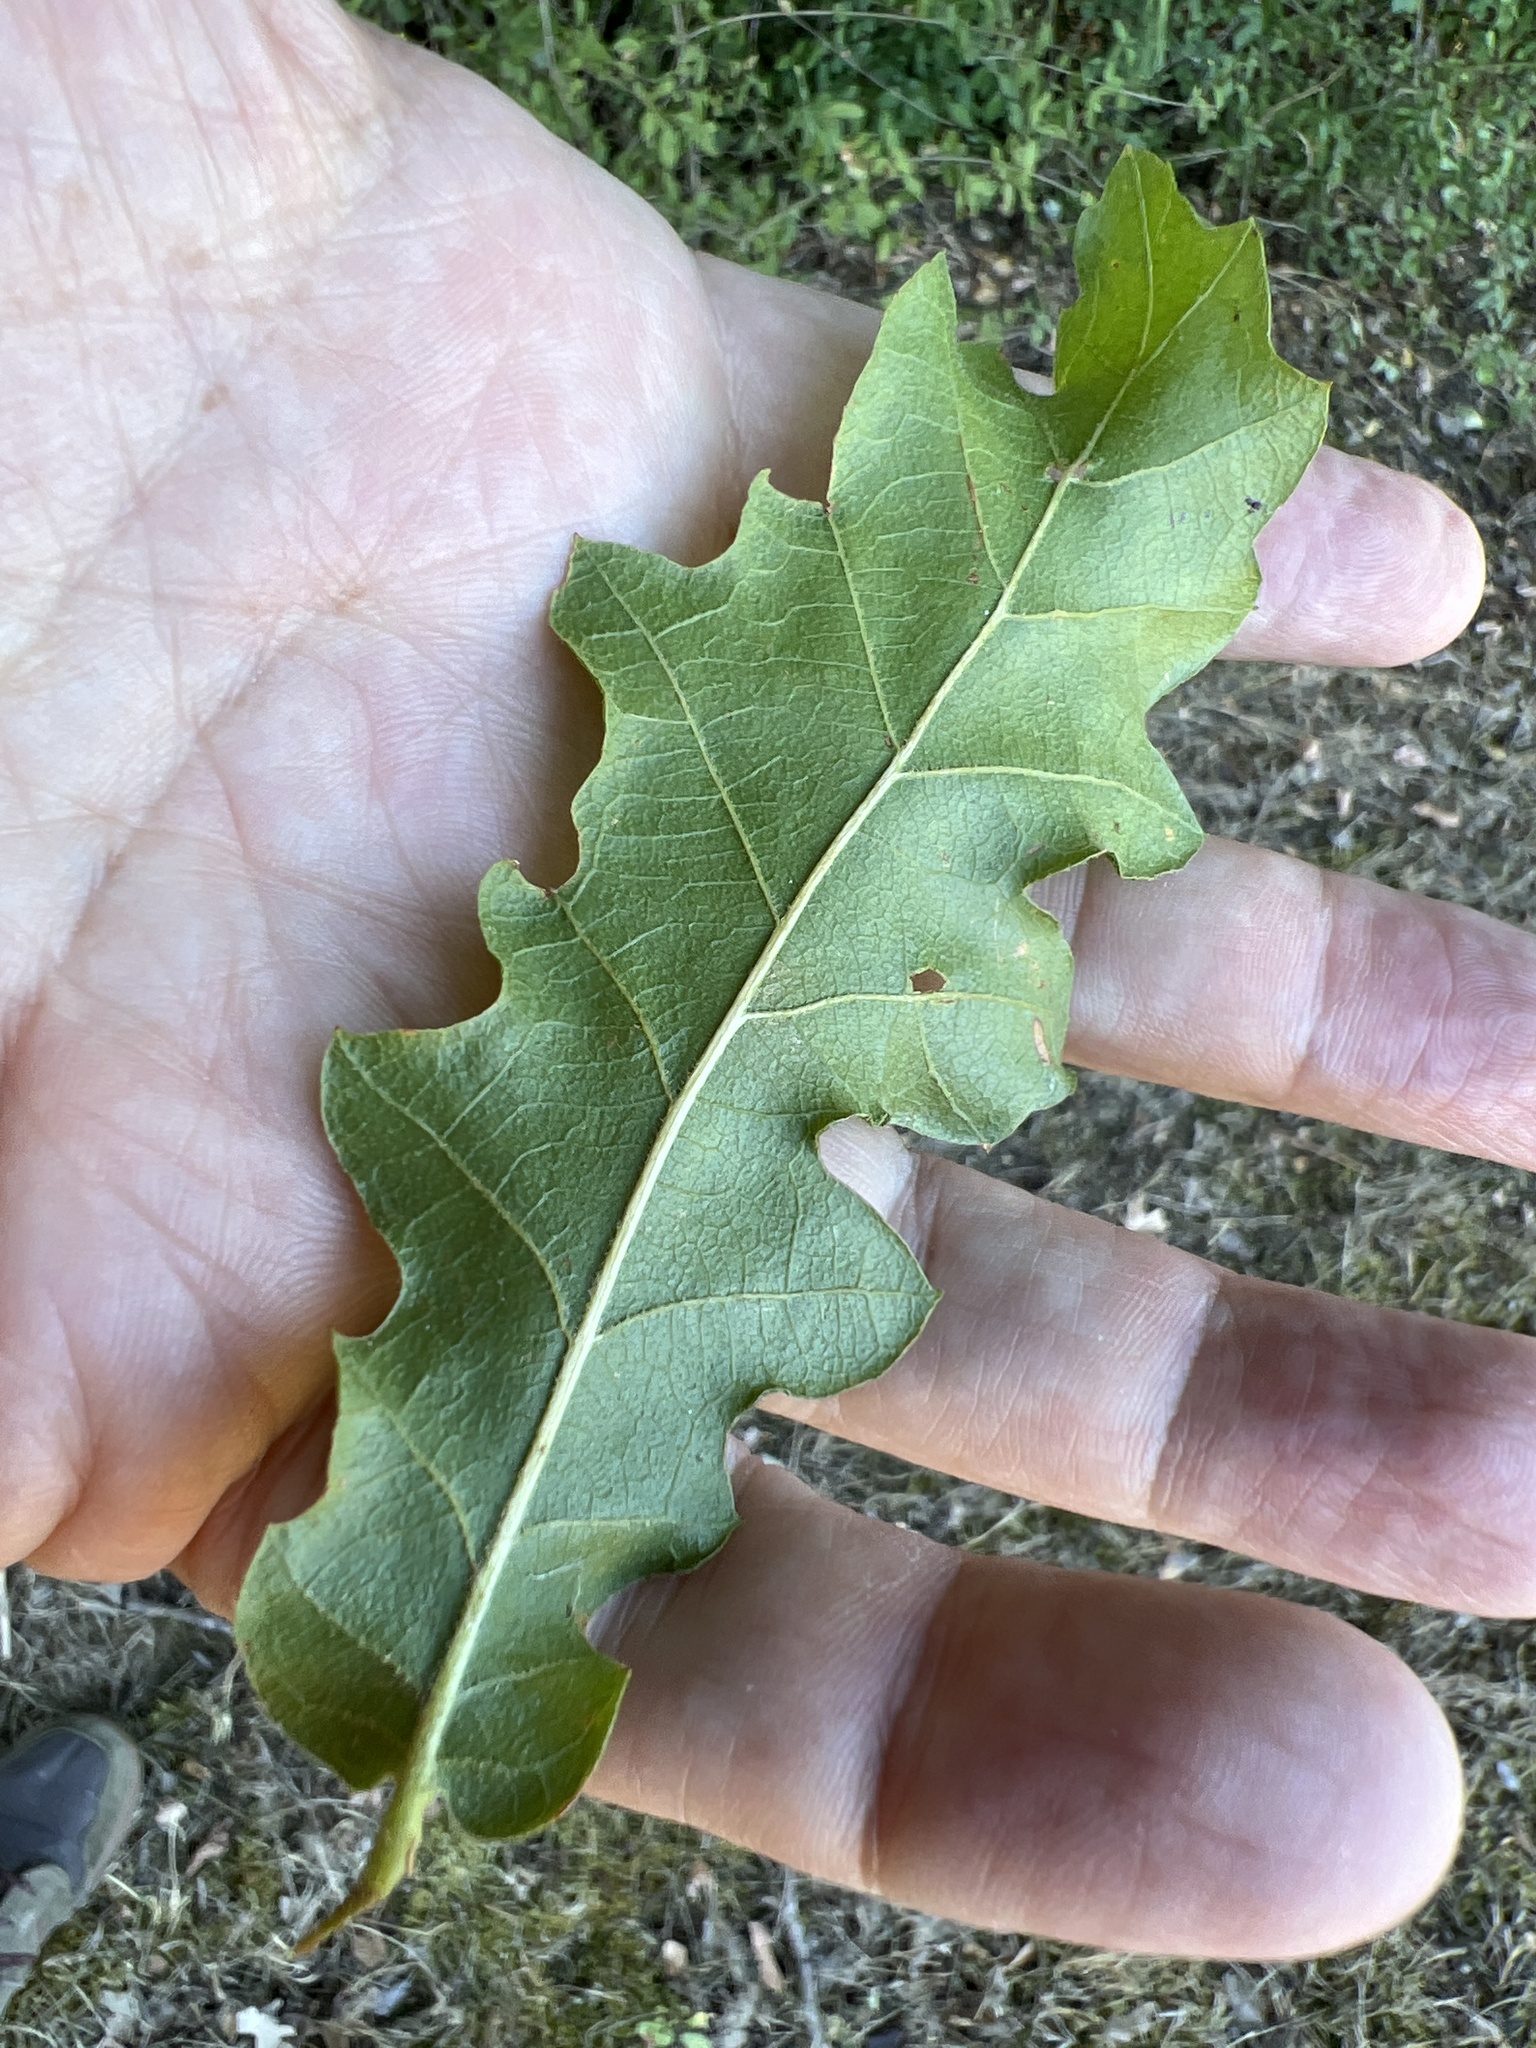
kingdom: Plantae
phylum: Tracheophyta
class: Magnoliopsida
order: Fagales
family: Fagaceae
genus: Quercus
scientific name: Quercus cerris
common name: Turkey oak
